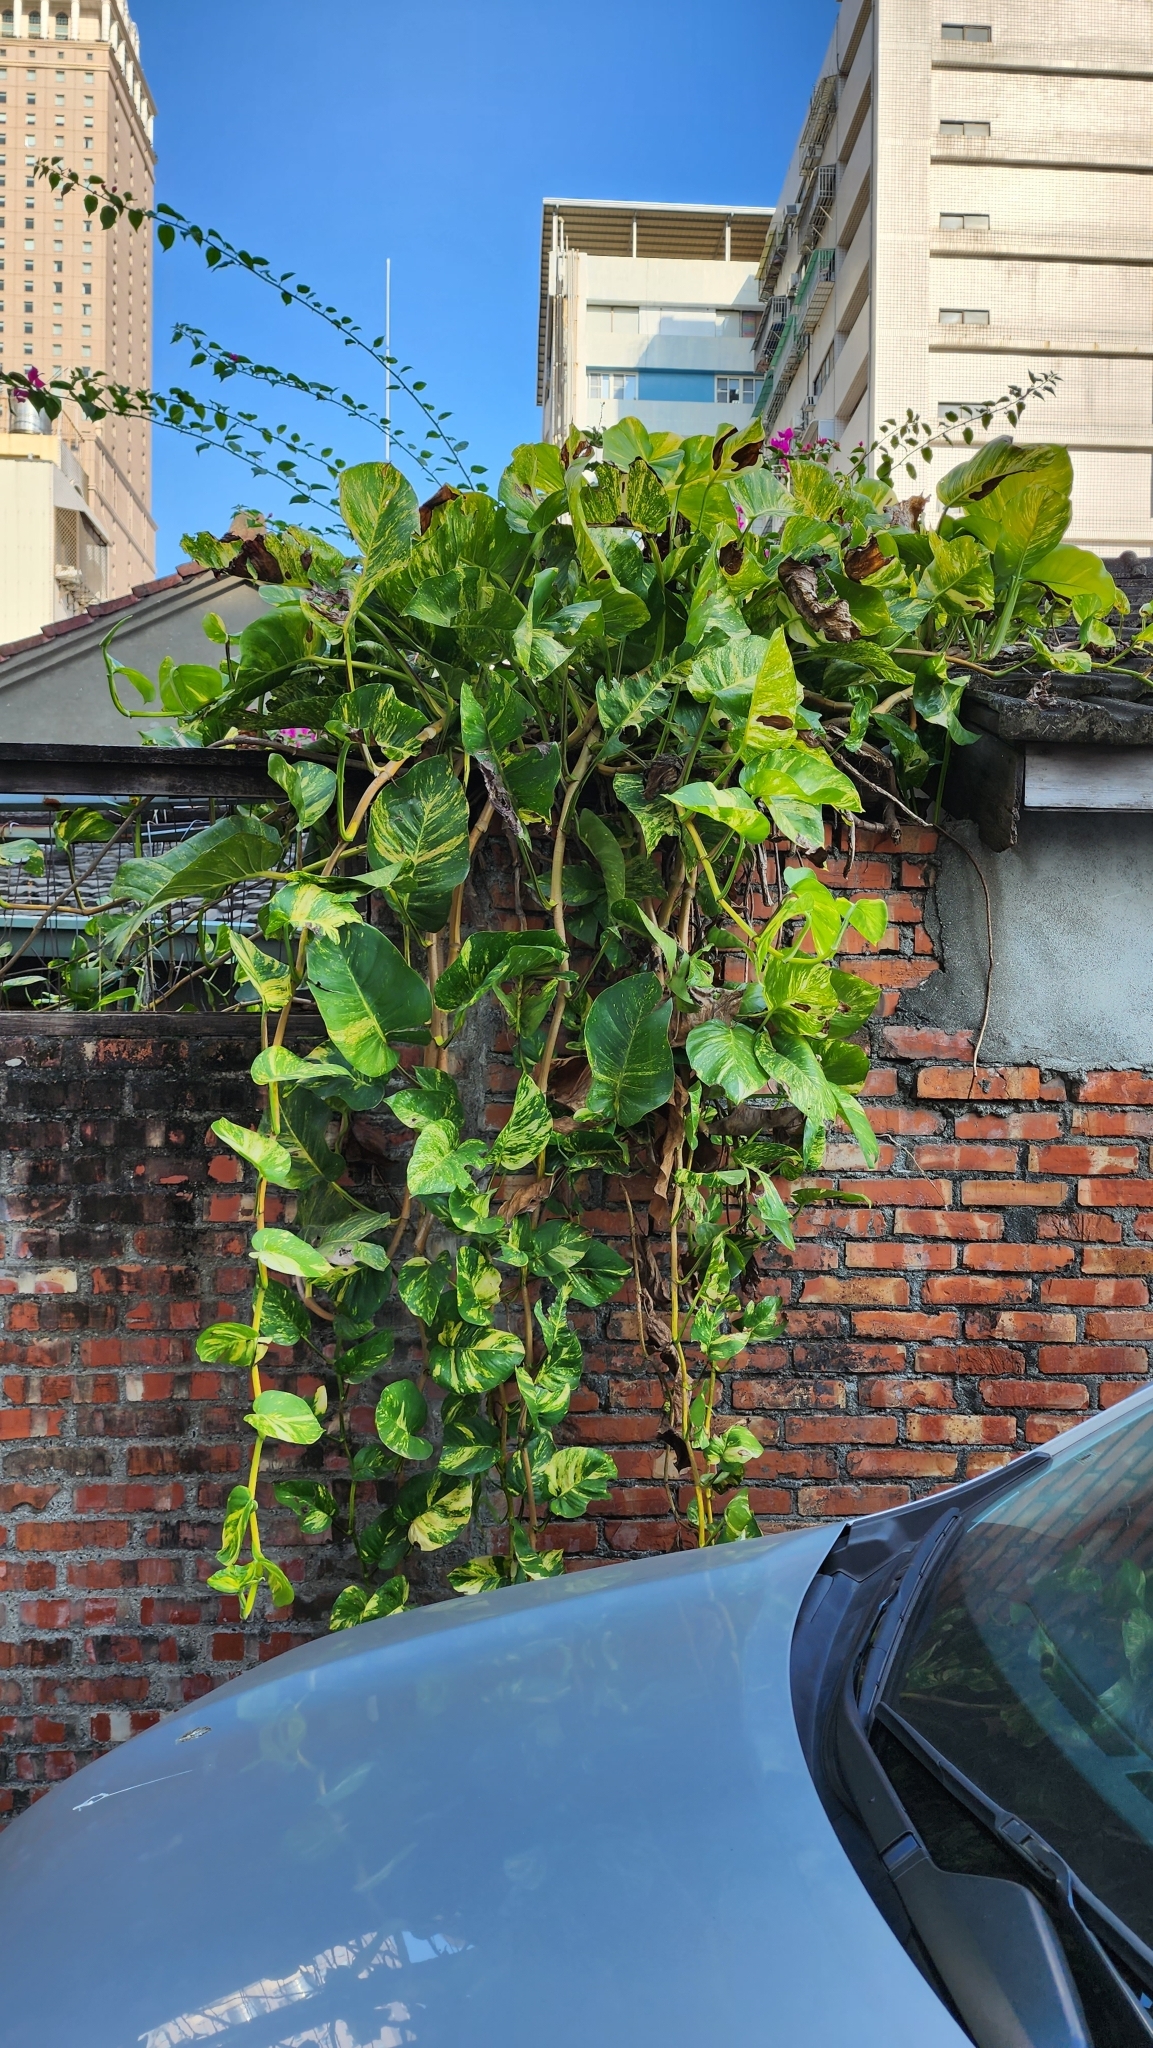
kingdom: Plantae
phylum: Tracheophyta
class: Liliopsida
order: Alismatales
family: Araceae
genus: Epipremnum
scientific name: Epipremnum aureum
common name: Golden hunter's-robe
